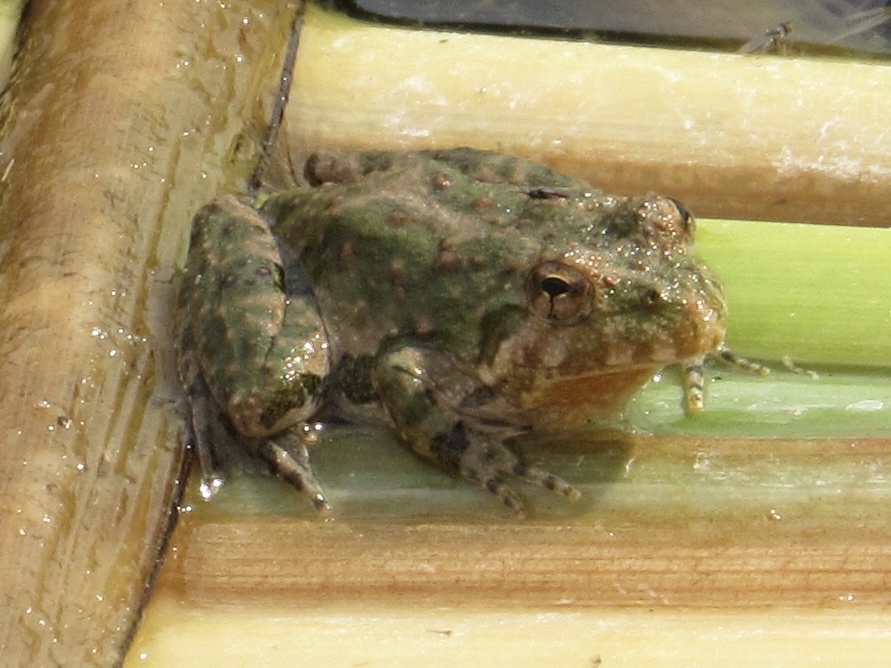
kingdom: Animalia
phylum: Chordata
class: Amphibia
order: Anura
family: Hylidae
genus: Acris
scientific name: Acris blanchardi
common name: Blanchard's cricket frog
